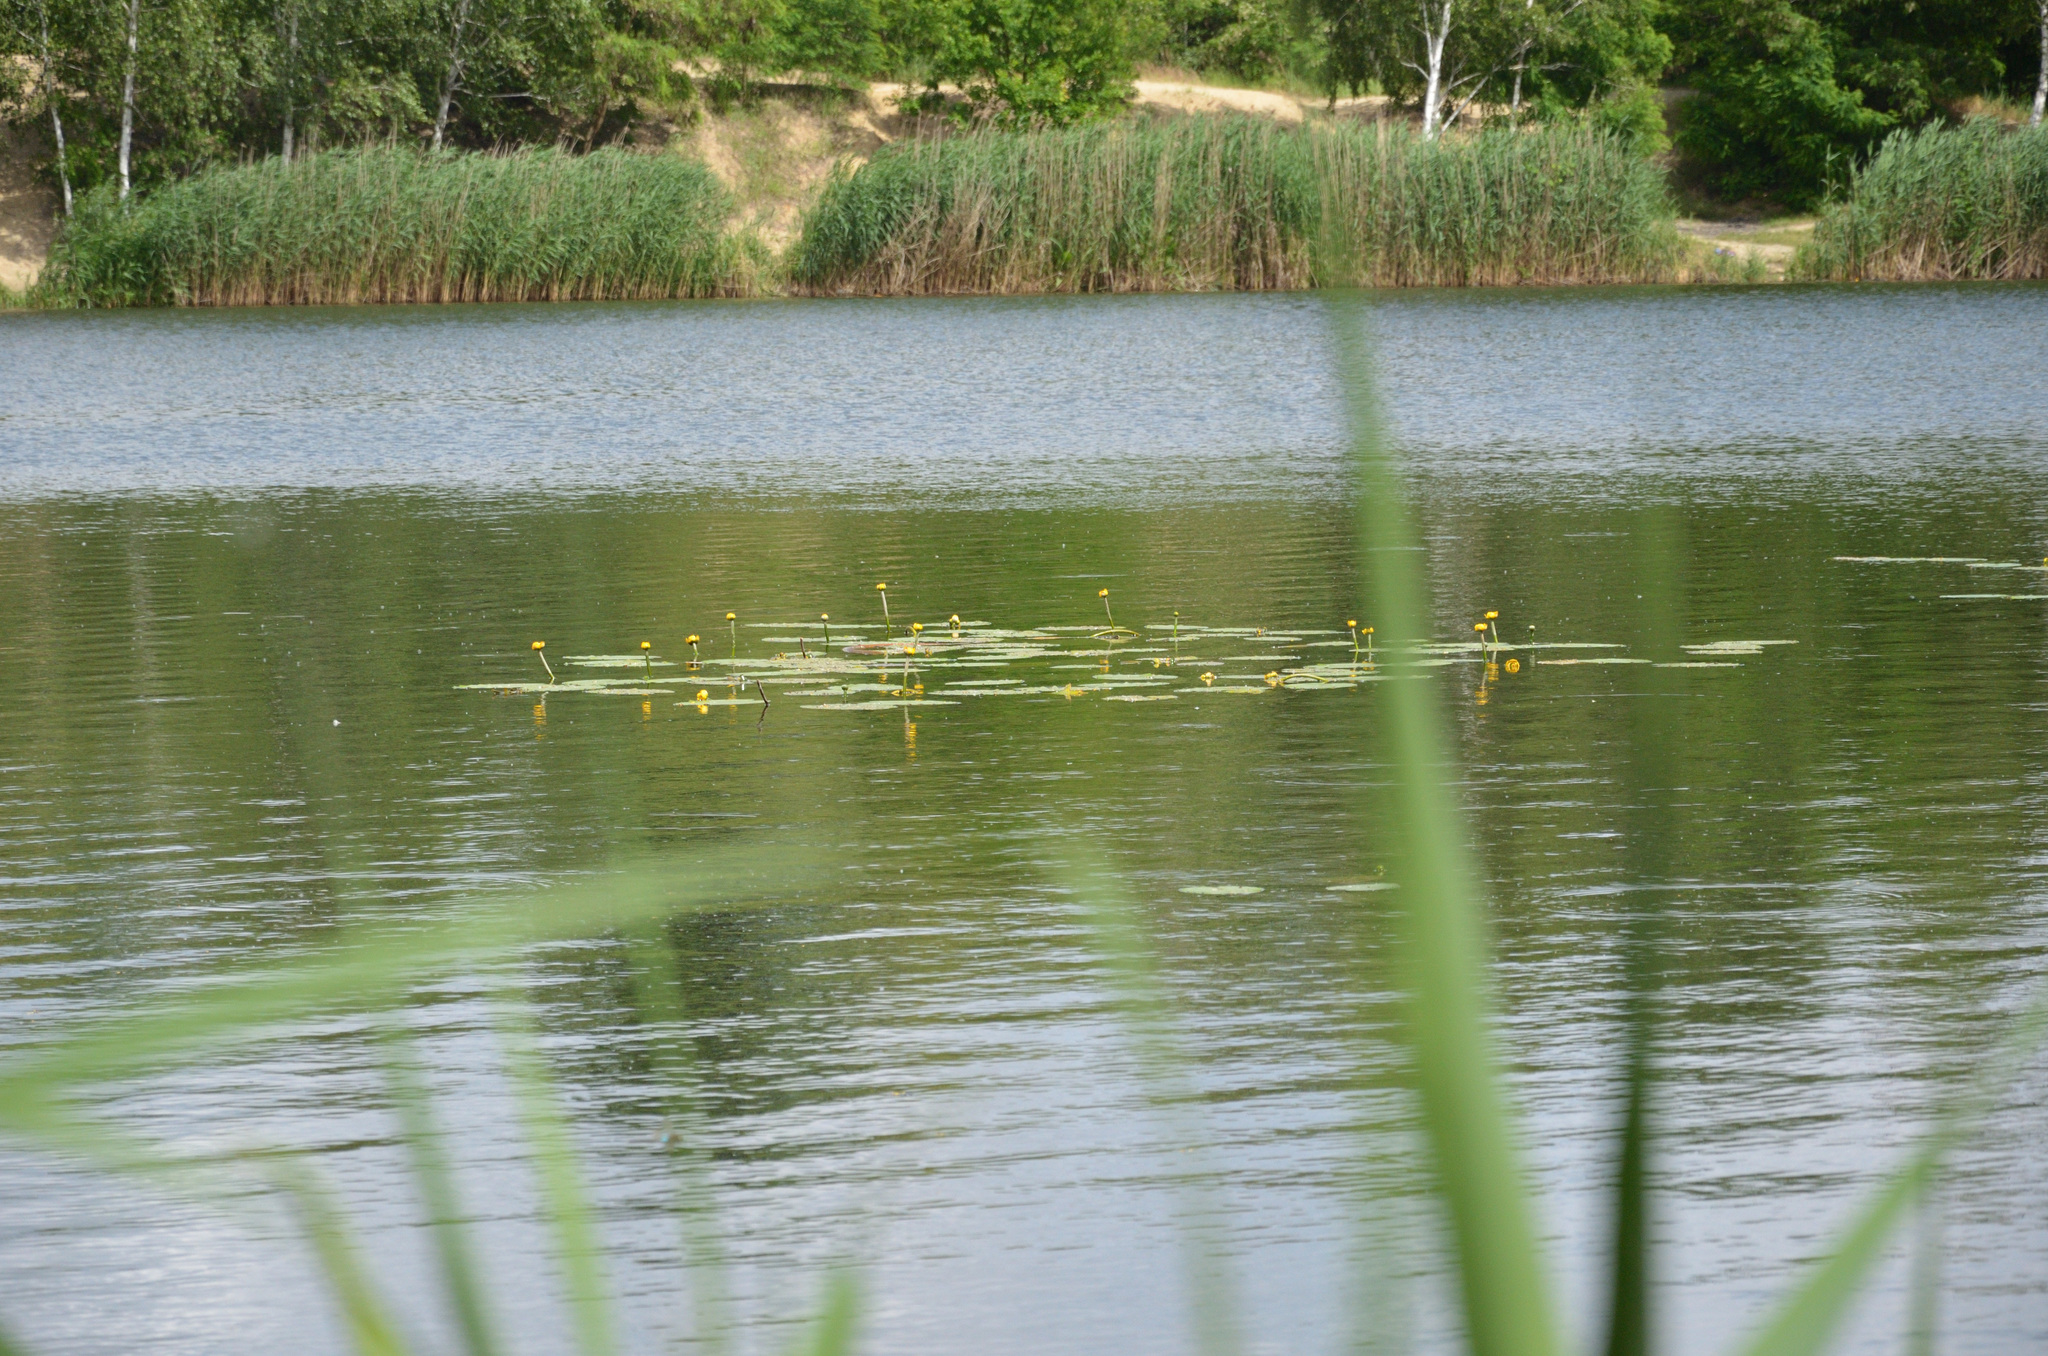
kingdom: Plantae
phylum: Tracheophyta
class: Magnoliopsida
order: Nymphaeales
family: Nymphaeaceae
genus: Nuphar
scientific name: Nuphar lutea
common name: Yellow water-lily
